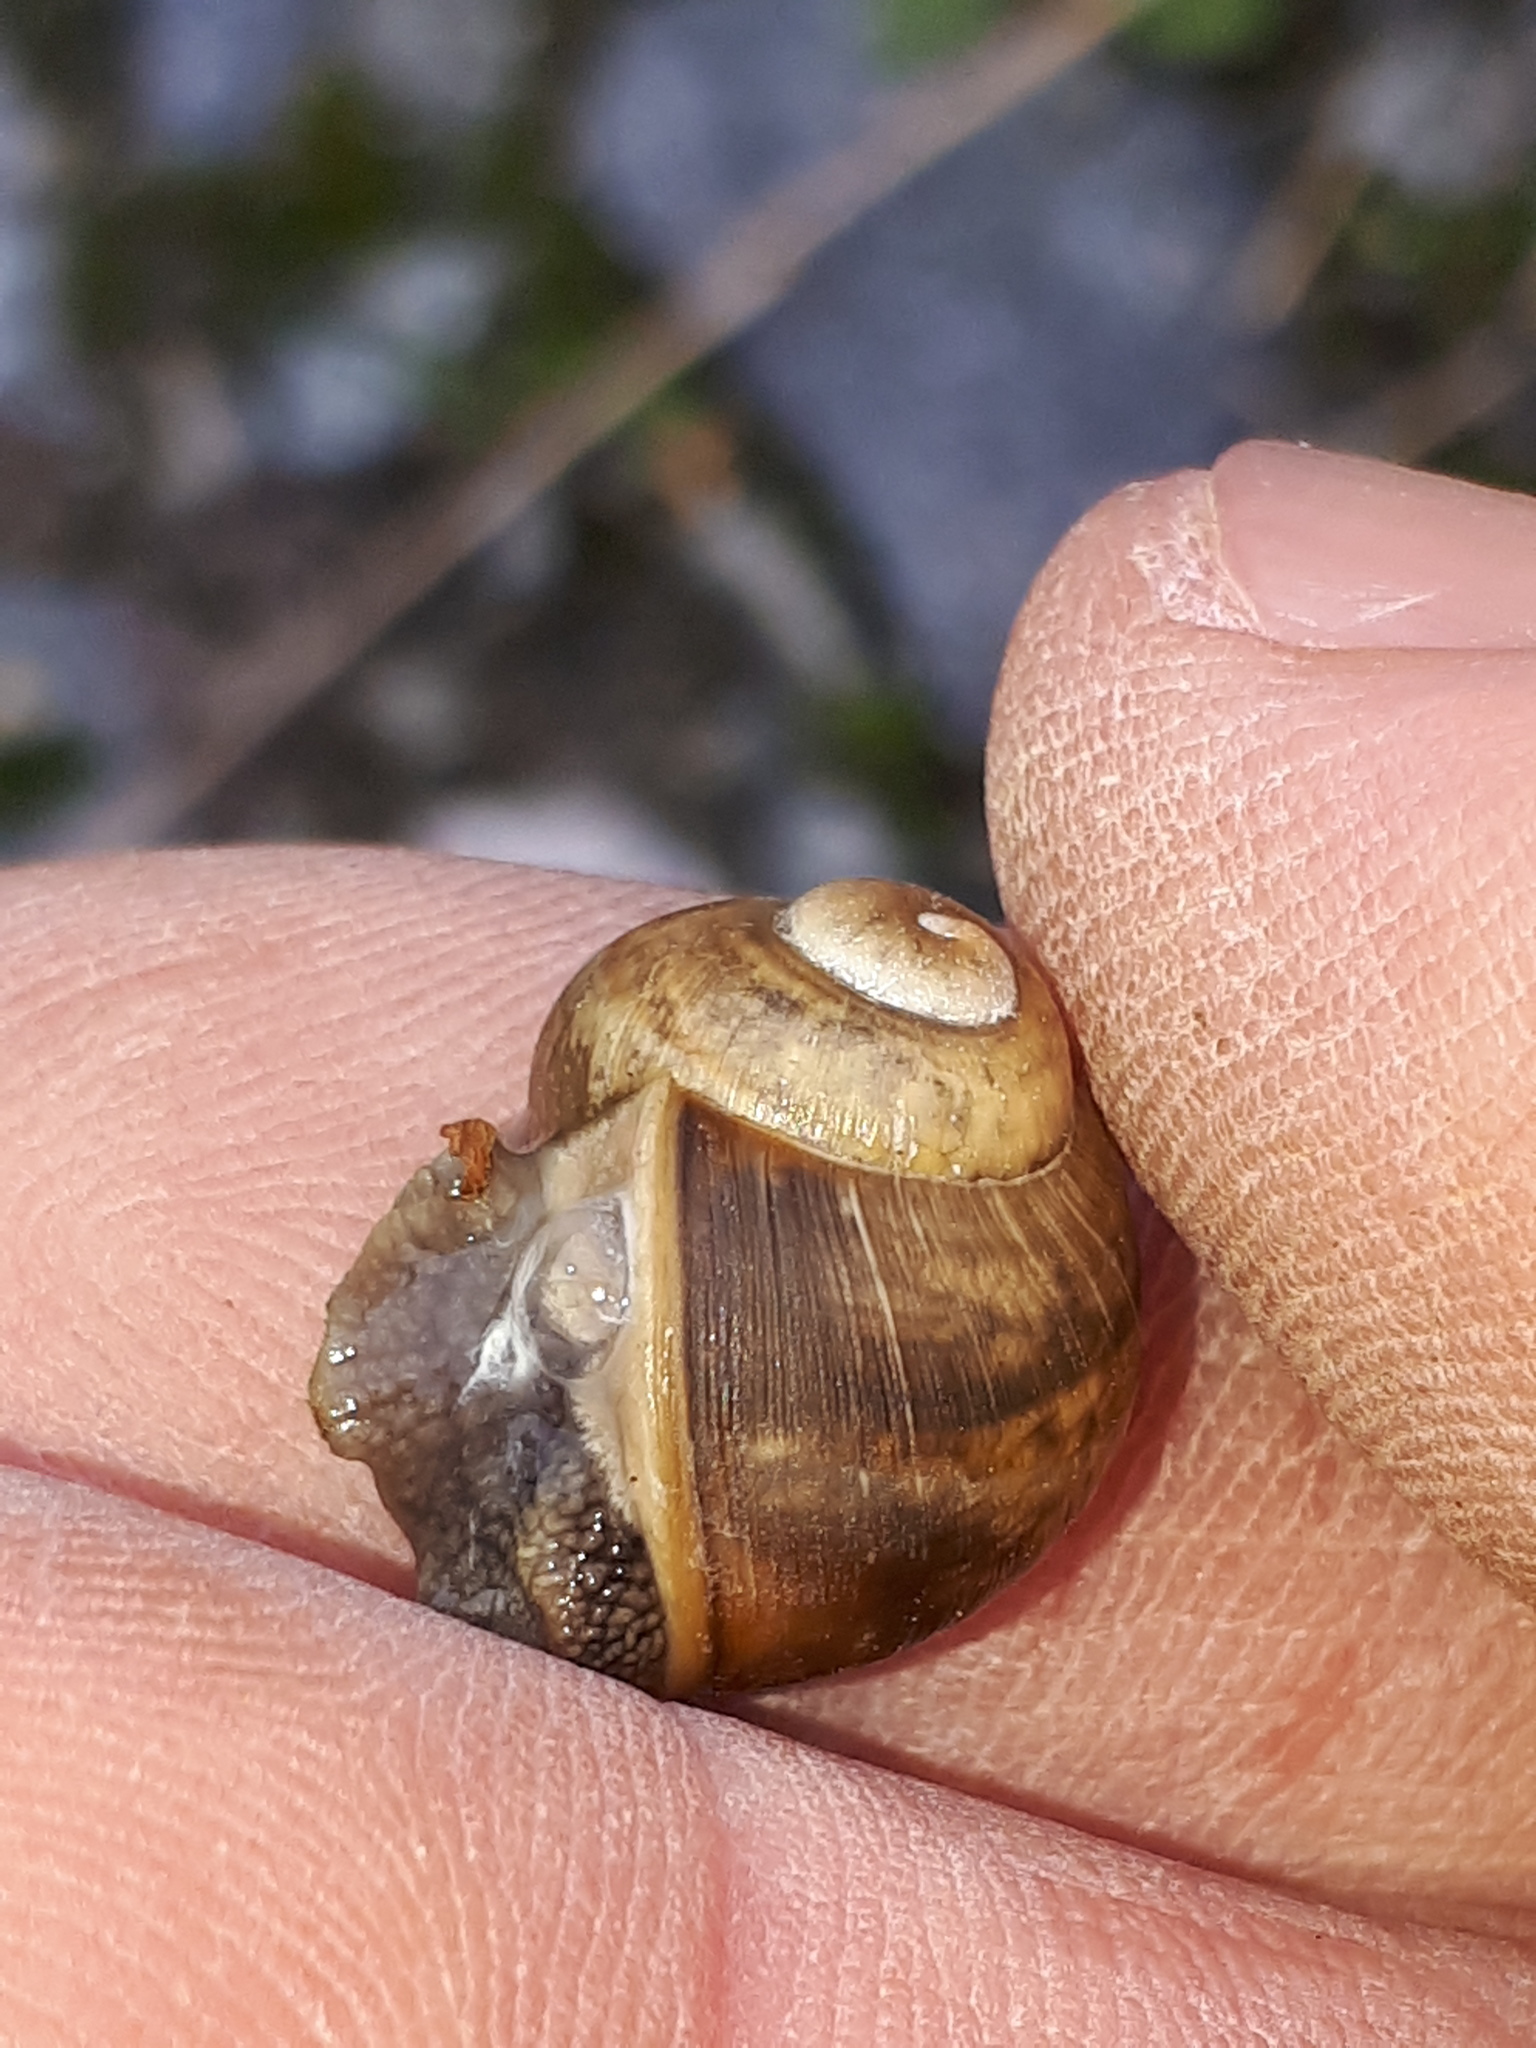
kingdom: Animalia
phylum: Mollusca
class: Gastropoda
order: Stylommatophora
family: Helicidae
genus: Helix
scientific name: Helix pomatia
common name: Roman snail
